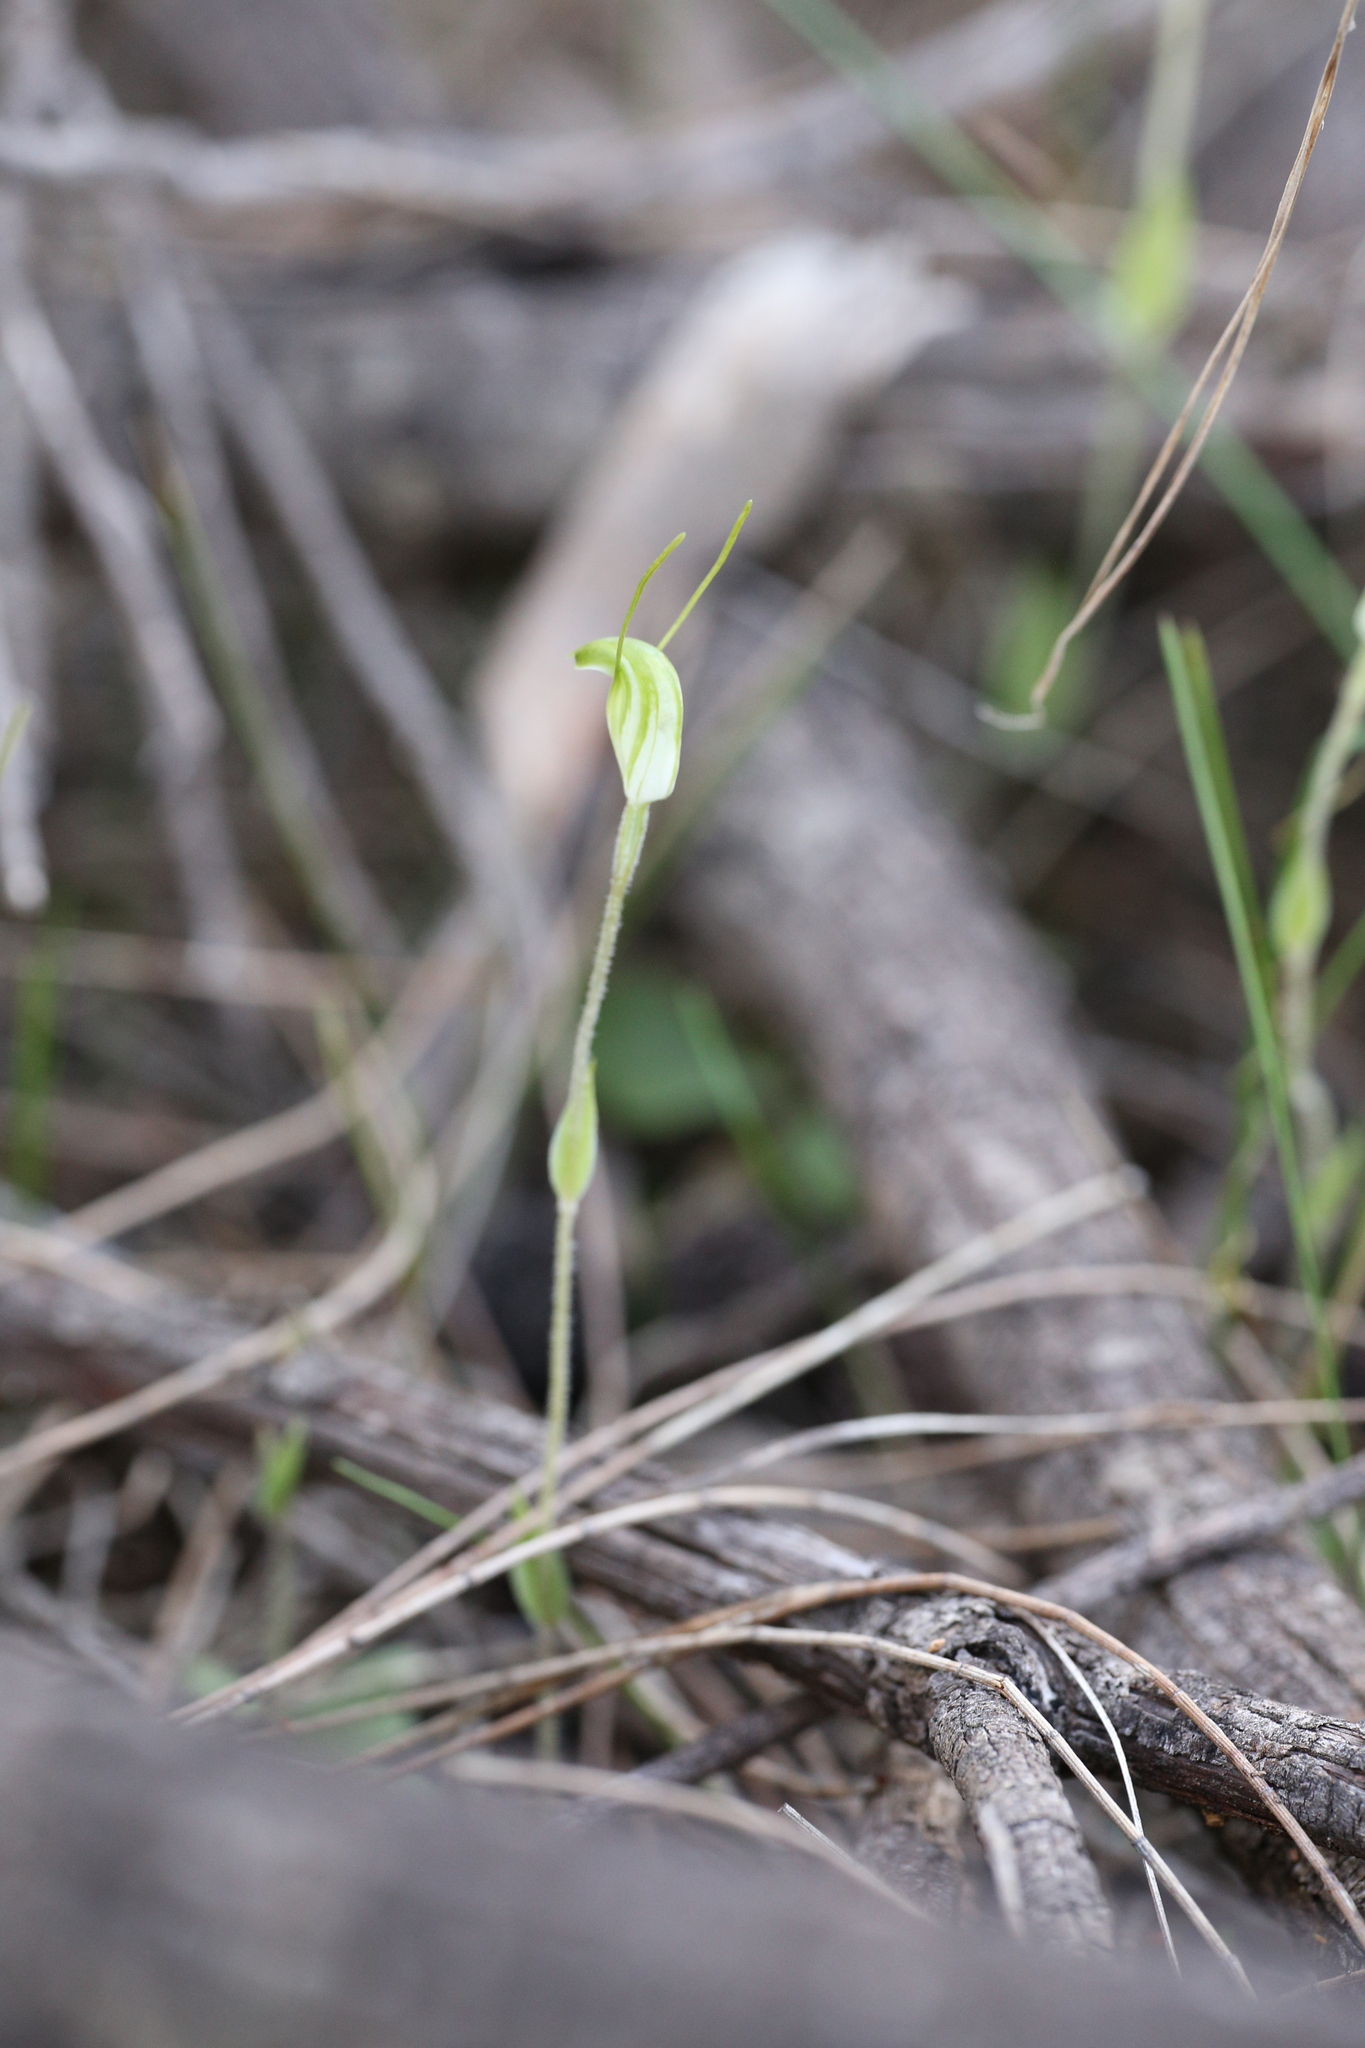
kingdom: Plantae
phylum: Tracheophyta
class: Liliopsida
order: Asparagales
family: Orchidaceae
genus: Pterostylis
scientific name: Pterostylis setulosa
